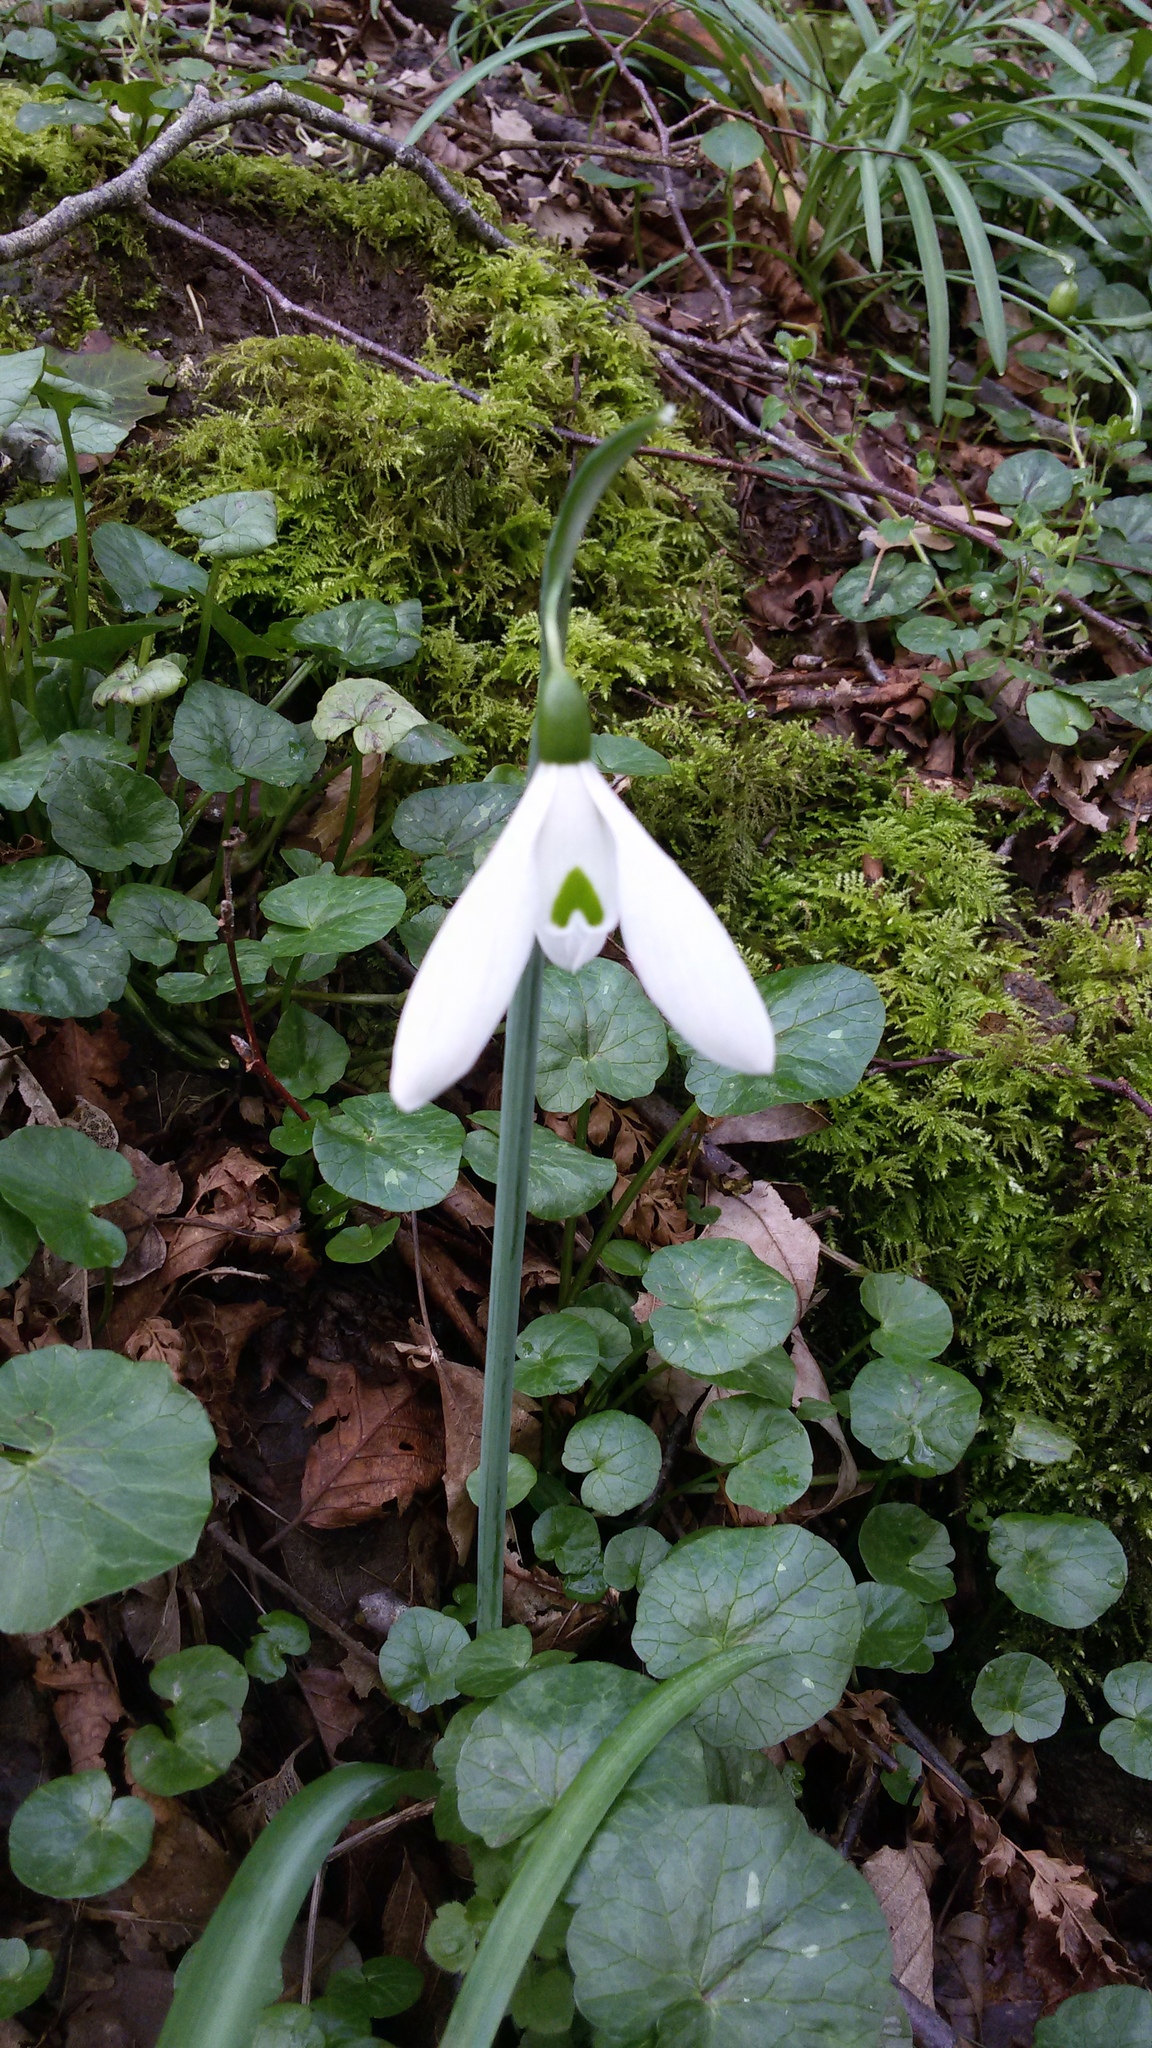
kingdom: Plantae
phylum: Tracheophyta
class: Liliopsida
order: Asparagales
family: Amaryllidaceae
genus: Galanthus
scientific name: Galanthus nivalis
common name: Snowdrop
